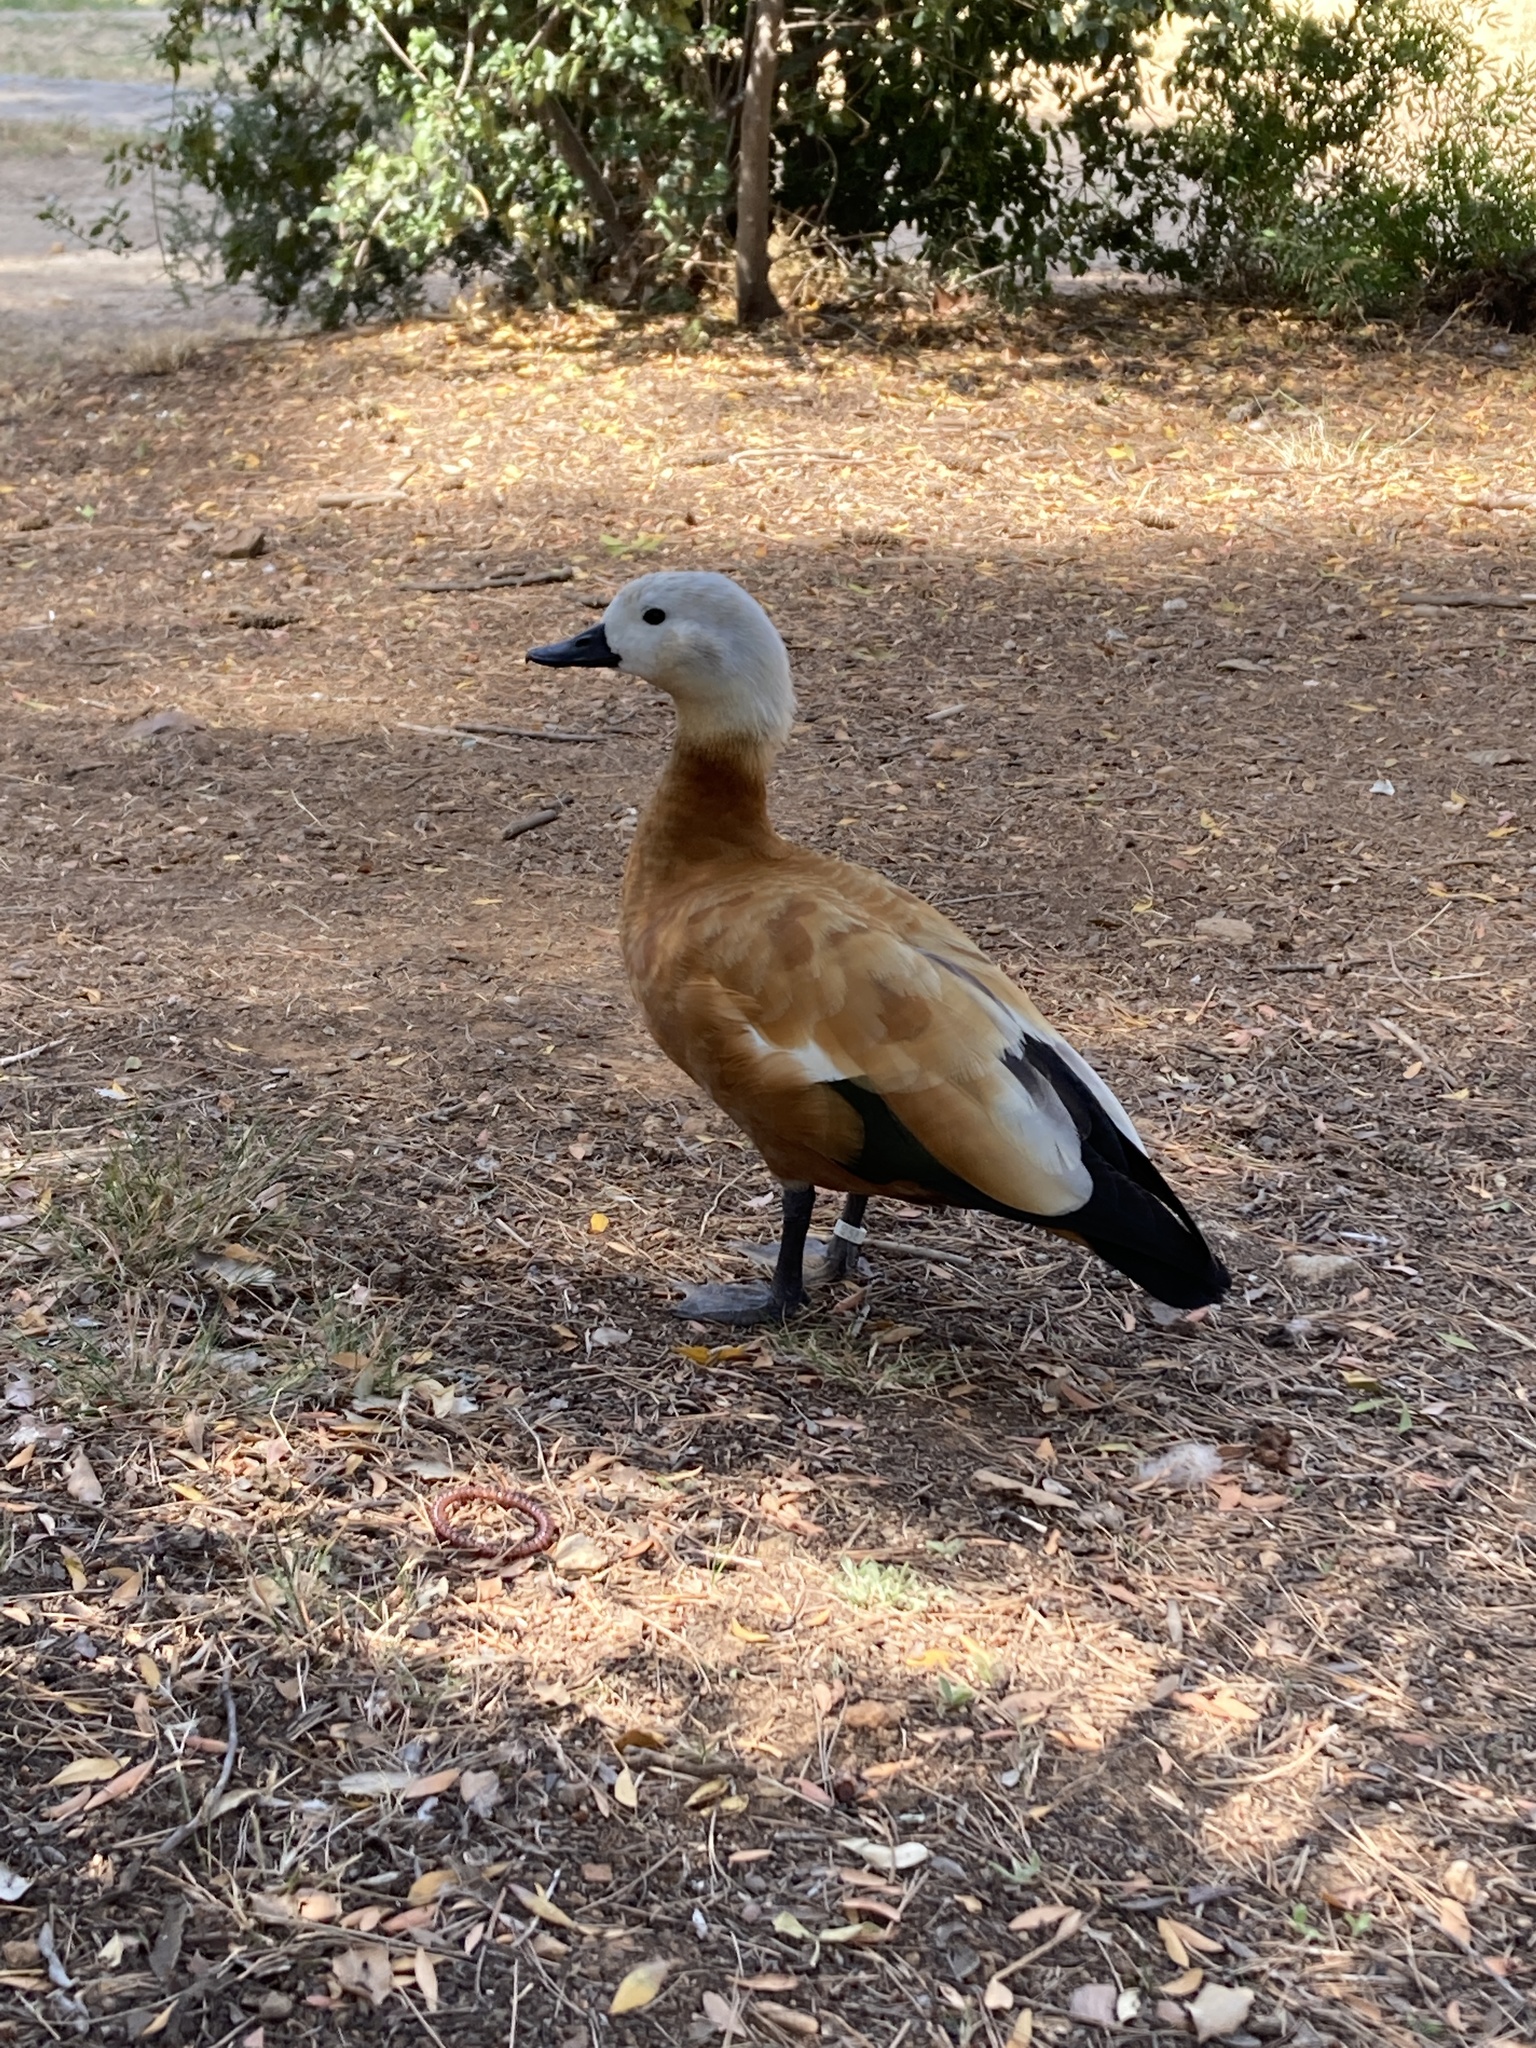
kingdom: Animalia
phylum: Chordata
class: Aves
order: Anseriformes
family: Anatidae
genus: Tadorna
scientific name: Tadorna ferruginea
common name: Ruddy shelduck
